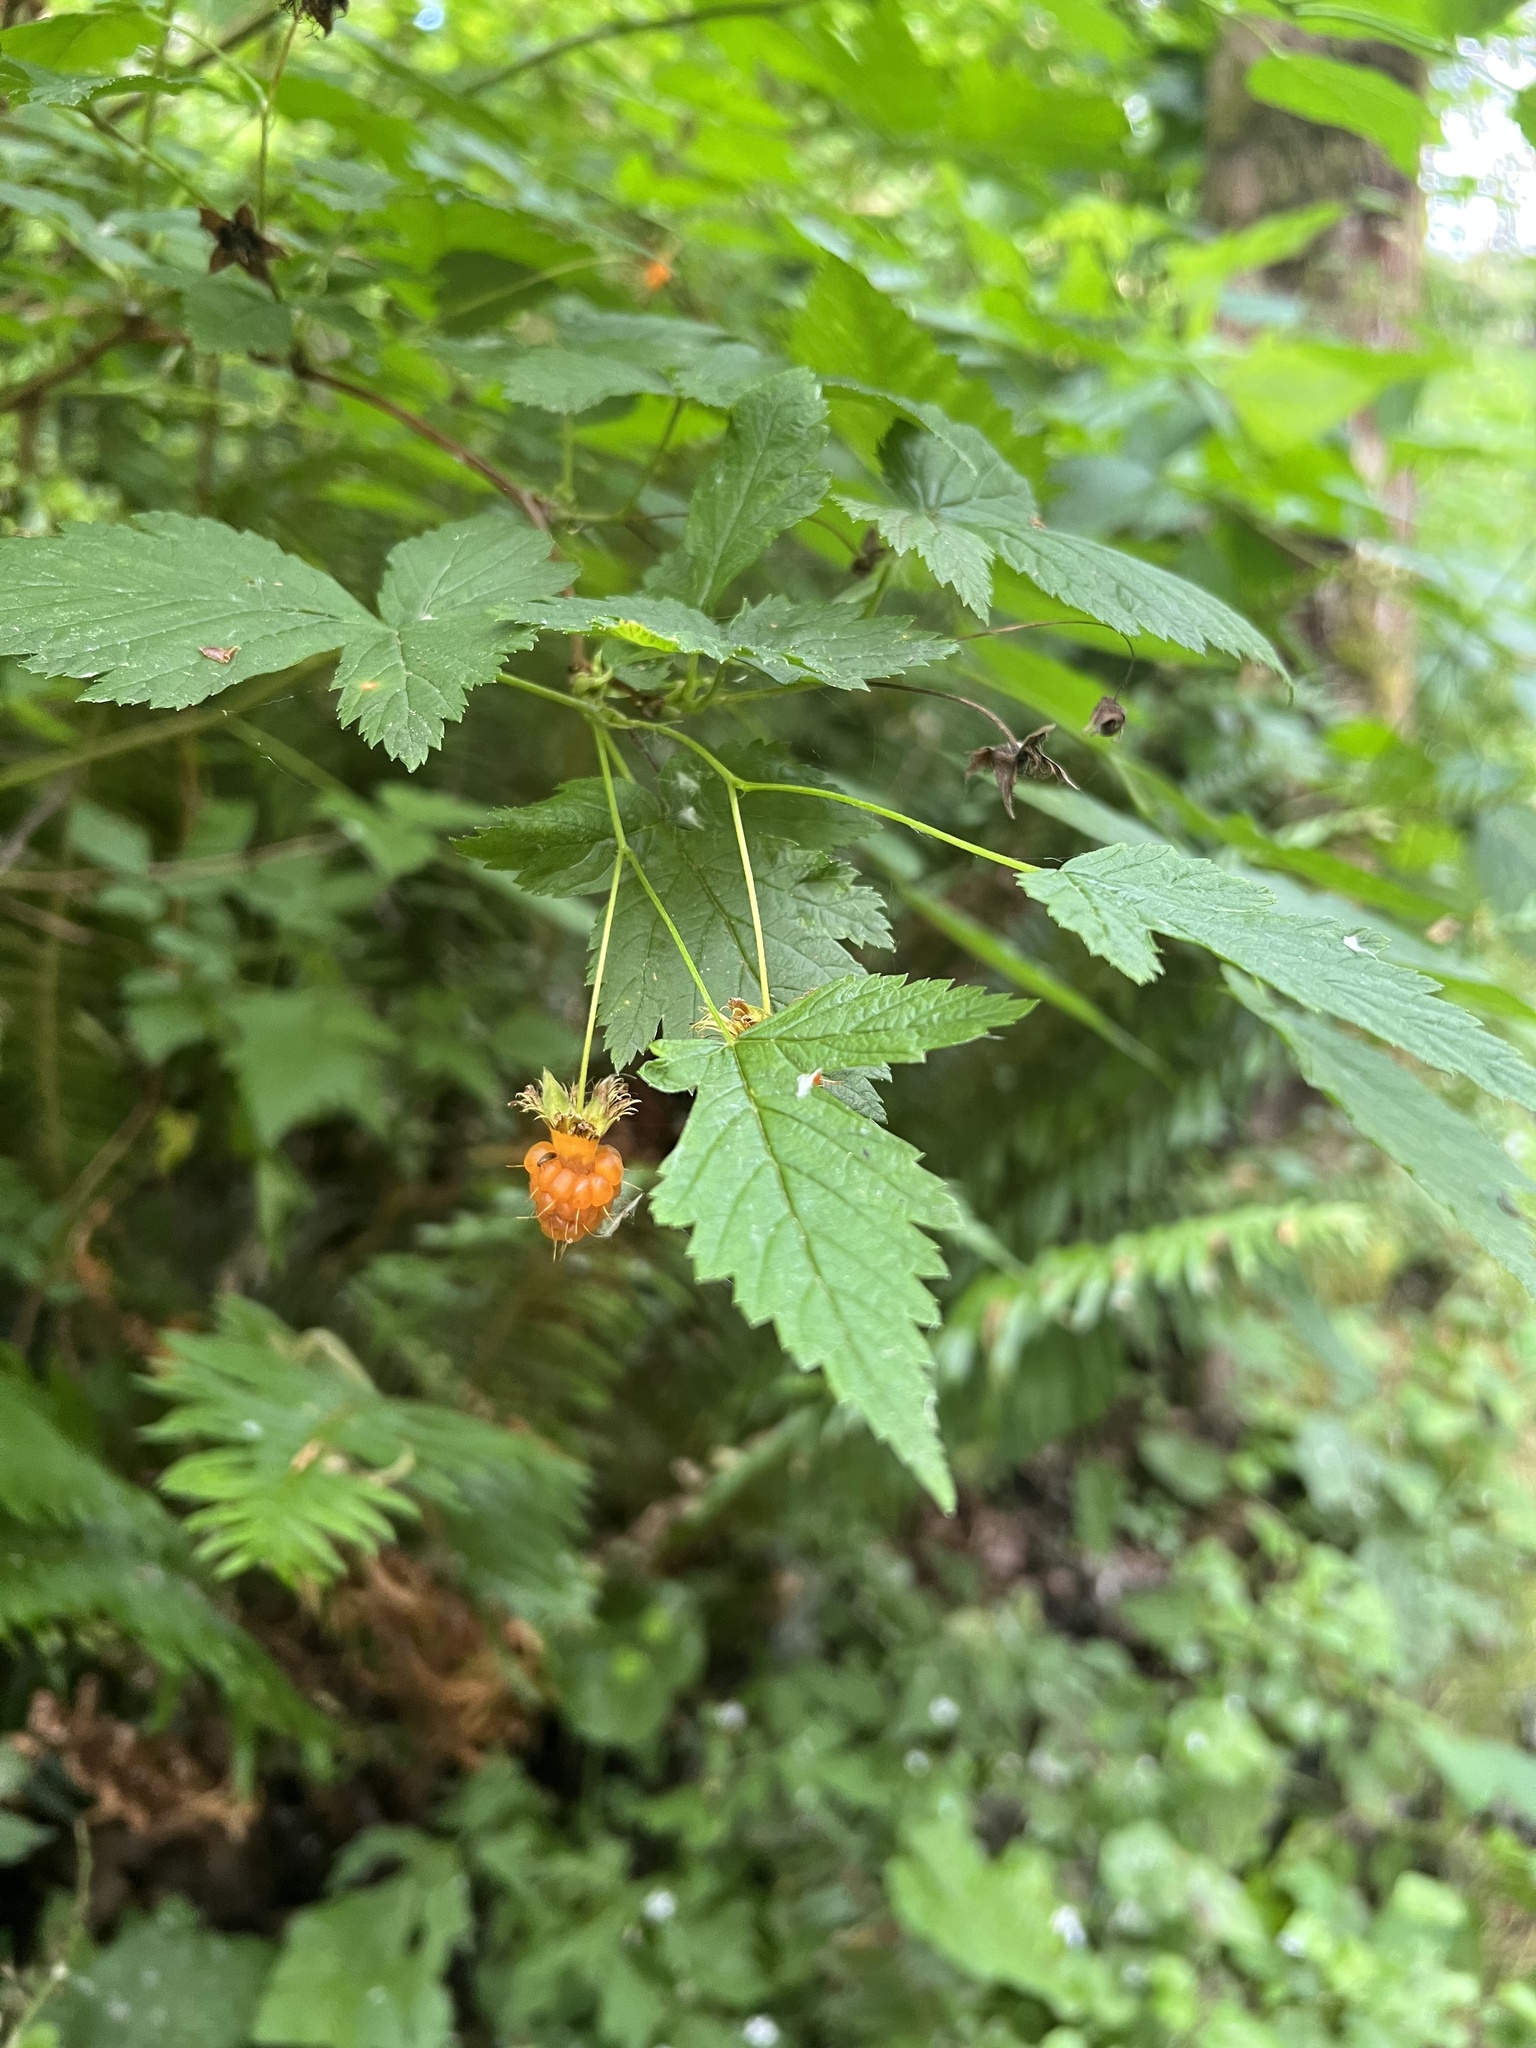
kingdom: Plantae
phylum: Tracheophyta
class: Magnoliopsida
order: Rosales
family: Rosaceae
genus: Rubus
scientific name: Rubus spectabilis
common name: Salmonberry
